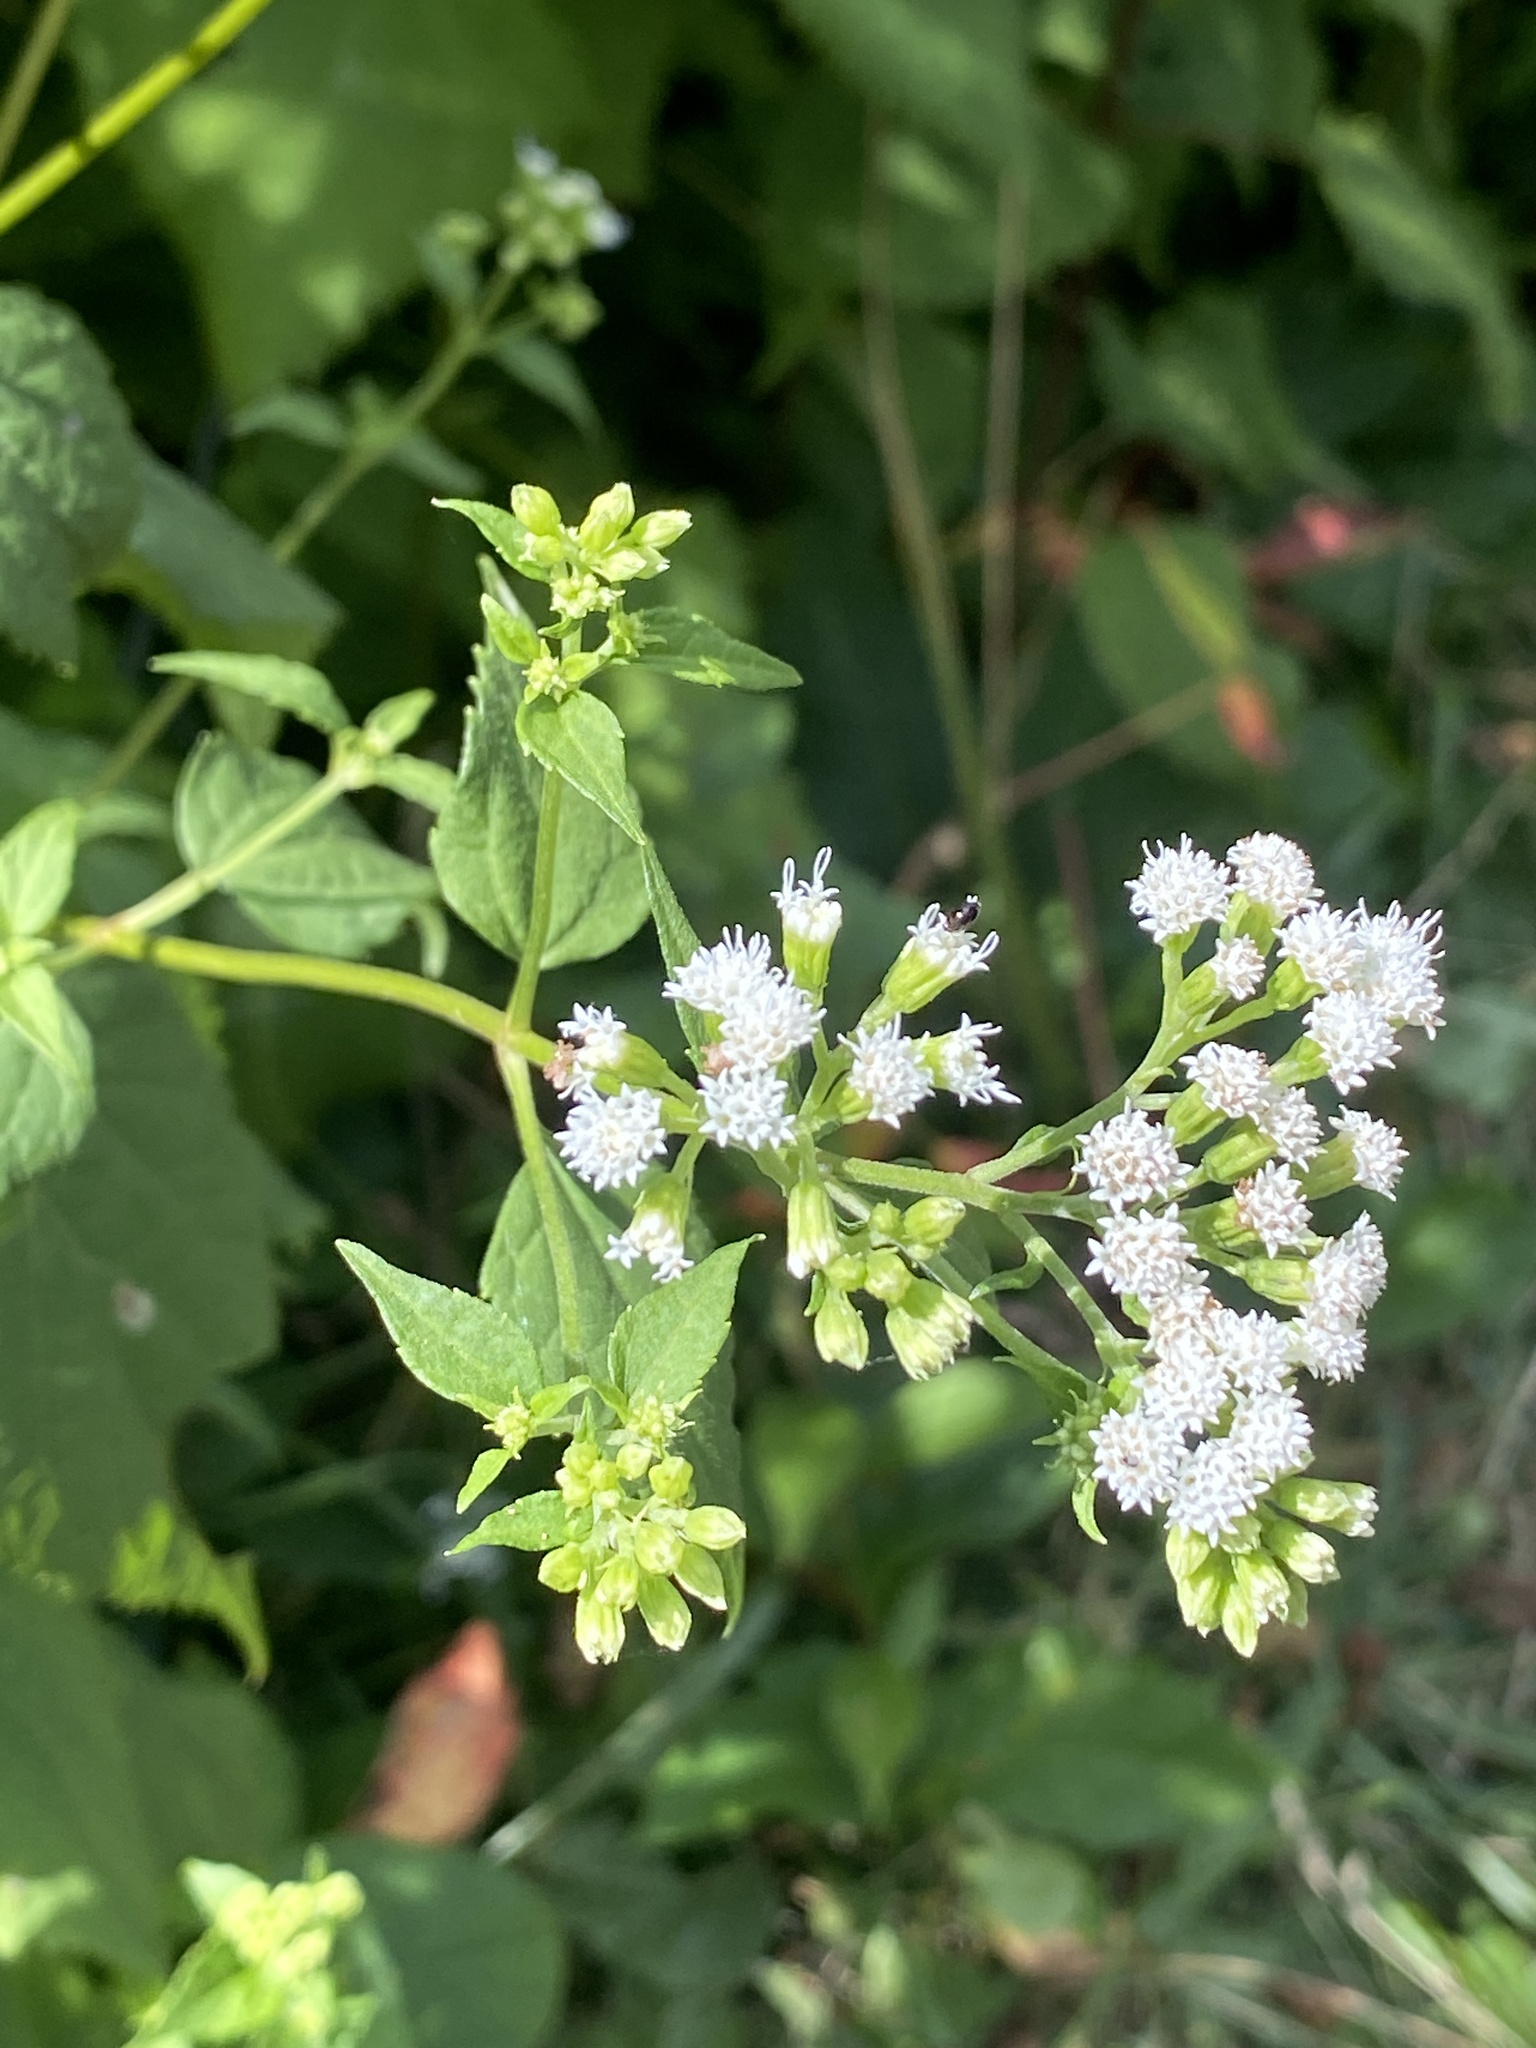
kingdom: Plantae
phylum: Tracheophyta
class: Magnoliopsida
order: Asterales
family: Asteraceae
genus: Ageratina
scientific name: Ageratina altissima
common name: White snakeroot
